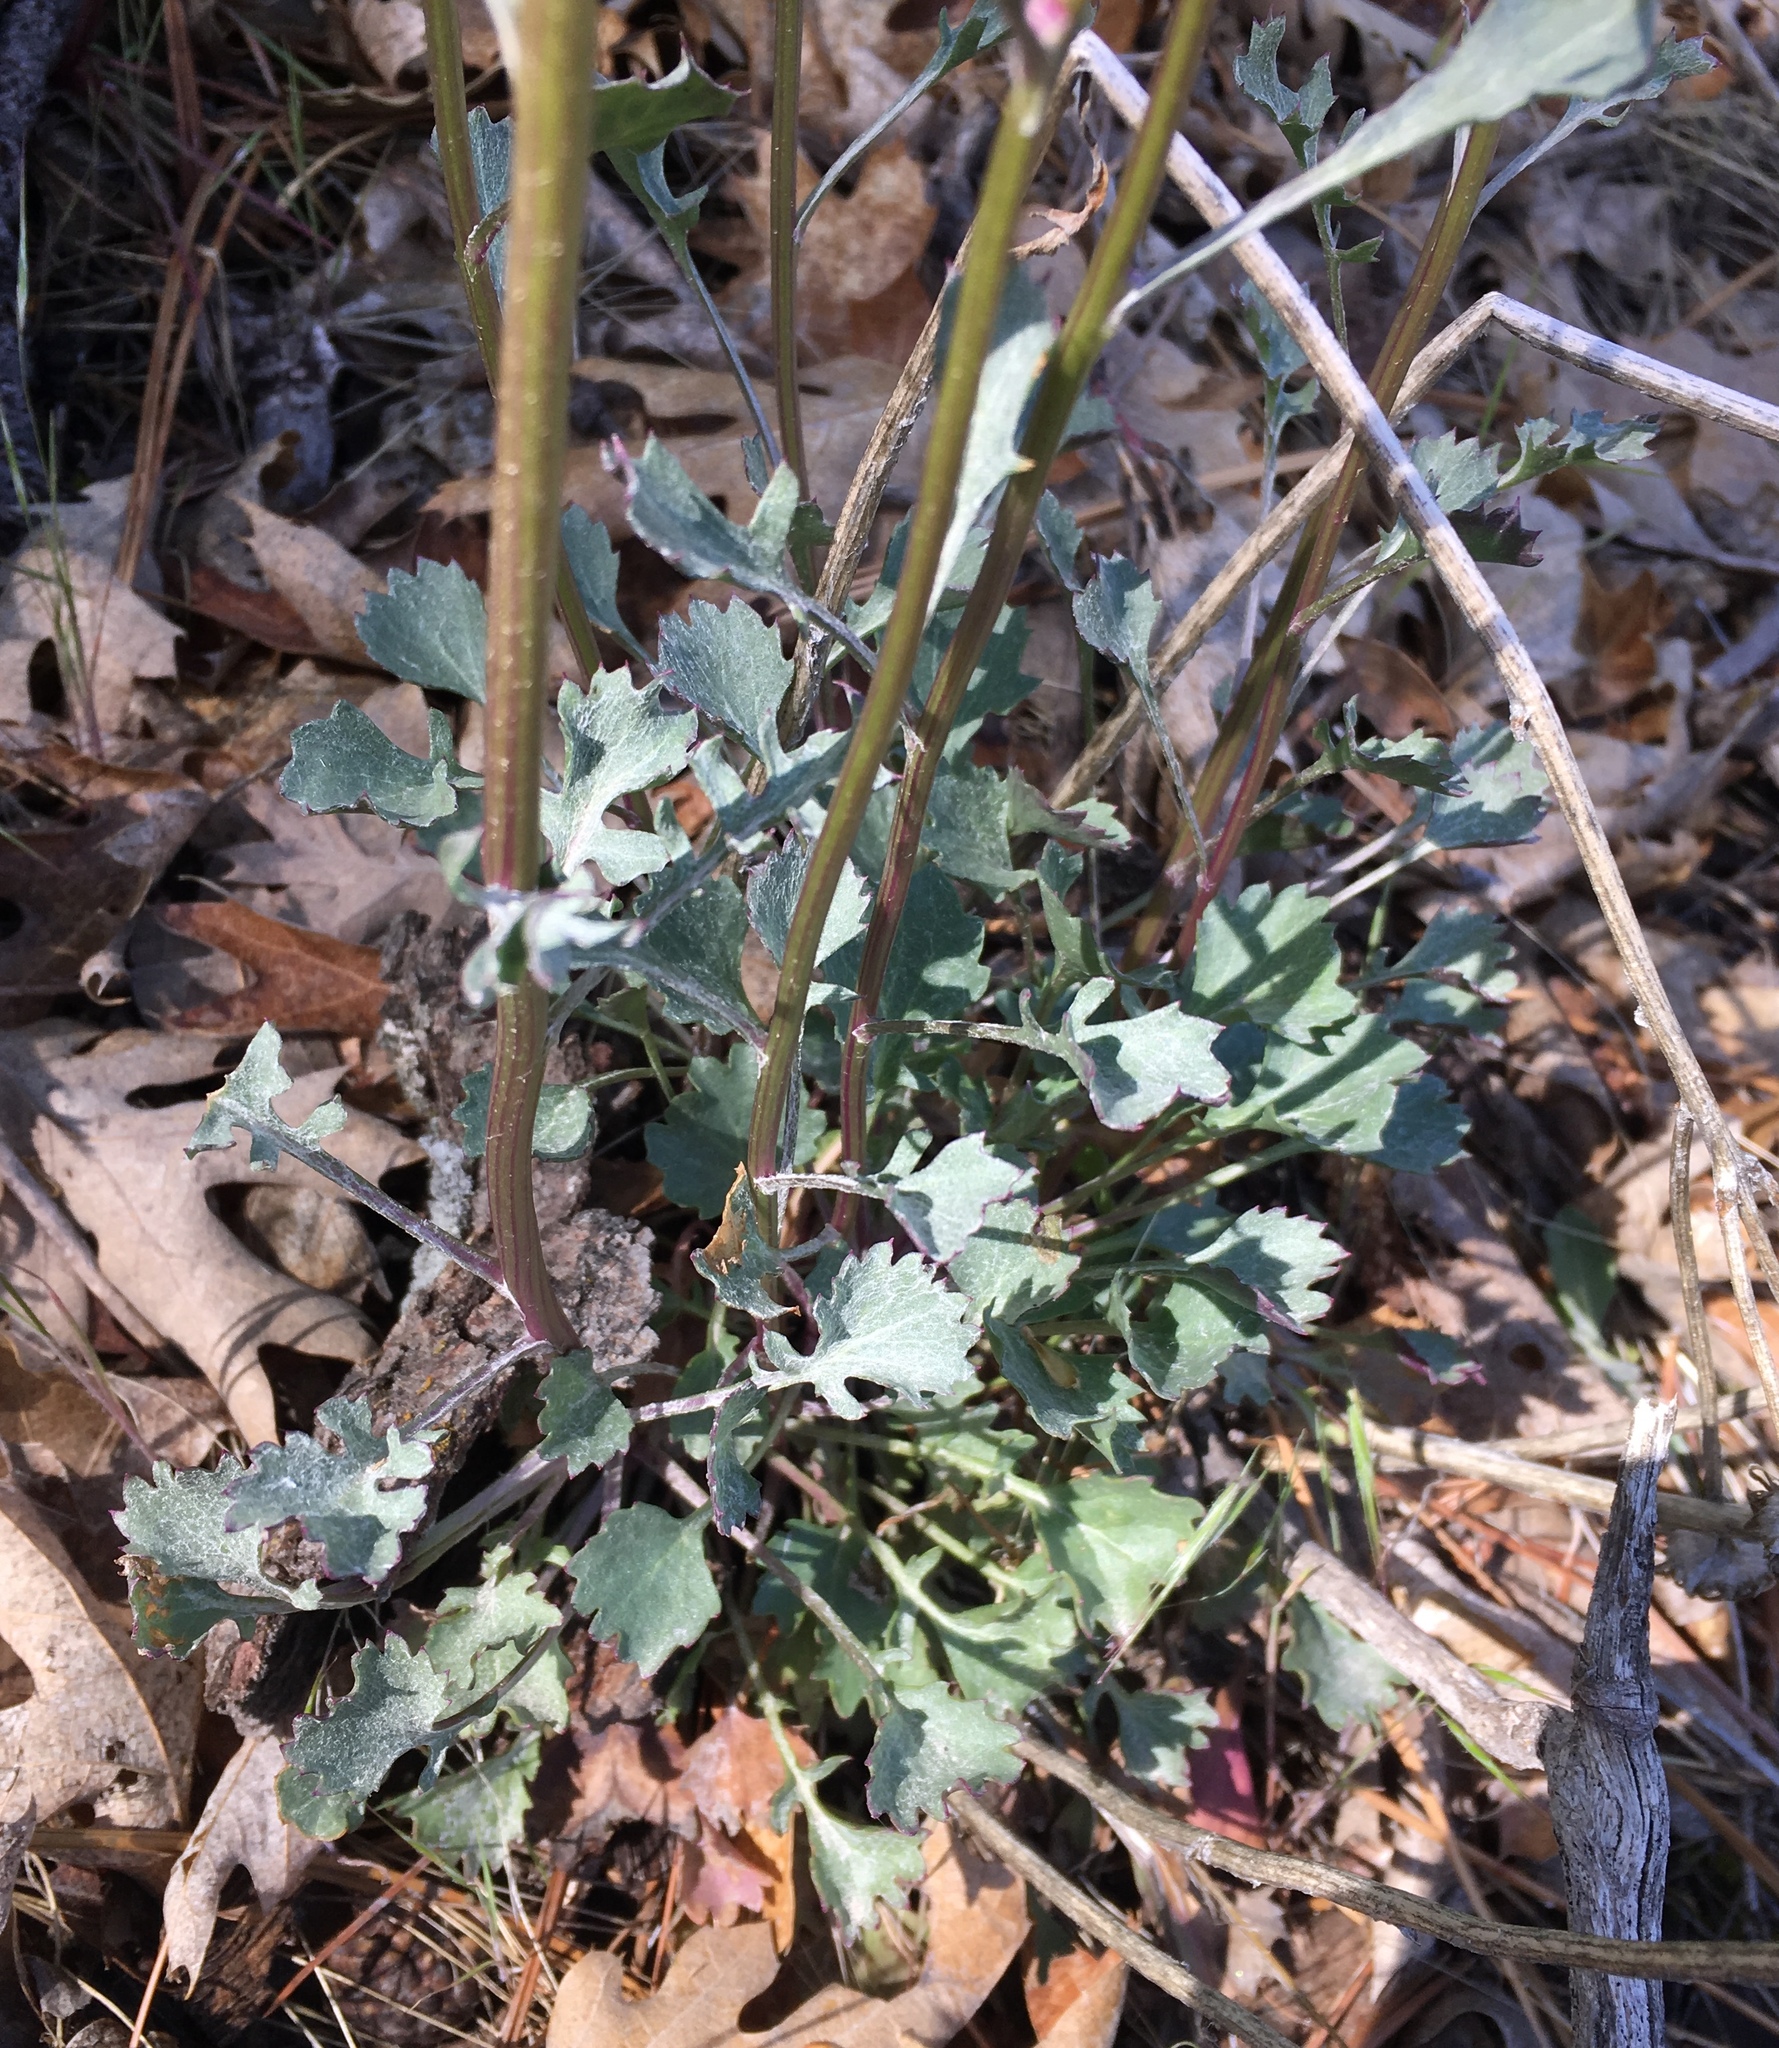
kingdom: Plantae
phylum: Tracheophyta
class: Magnoliopsida
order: Asterales
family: Asteraceae
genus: Packera
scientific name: Packera bernardina
